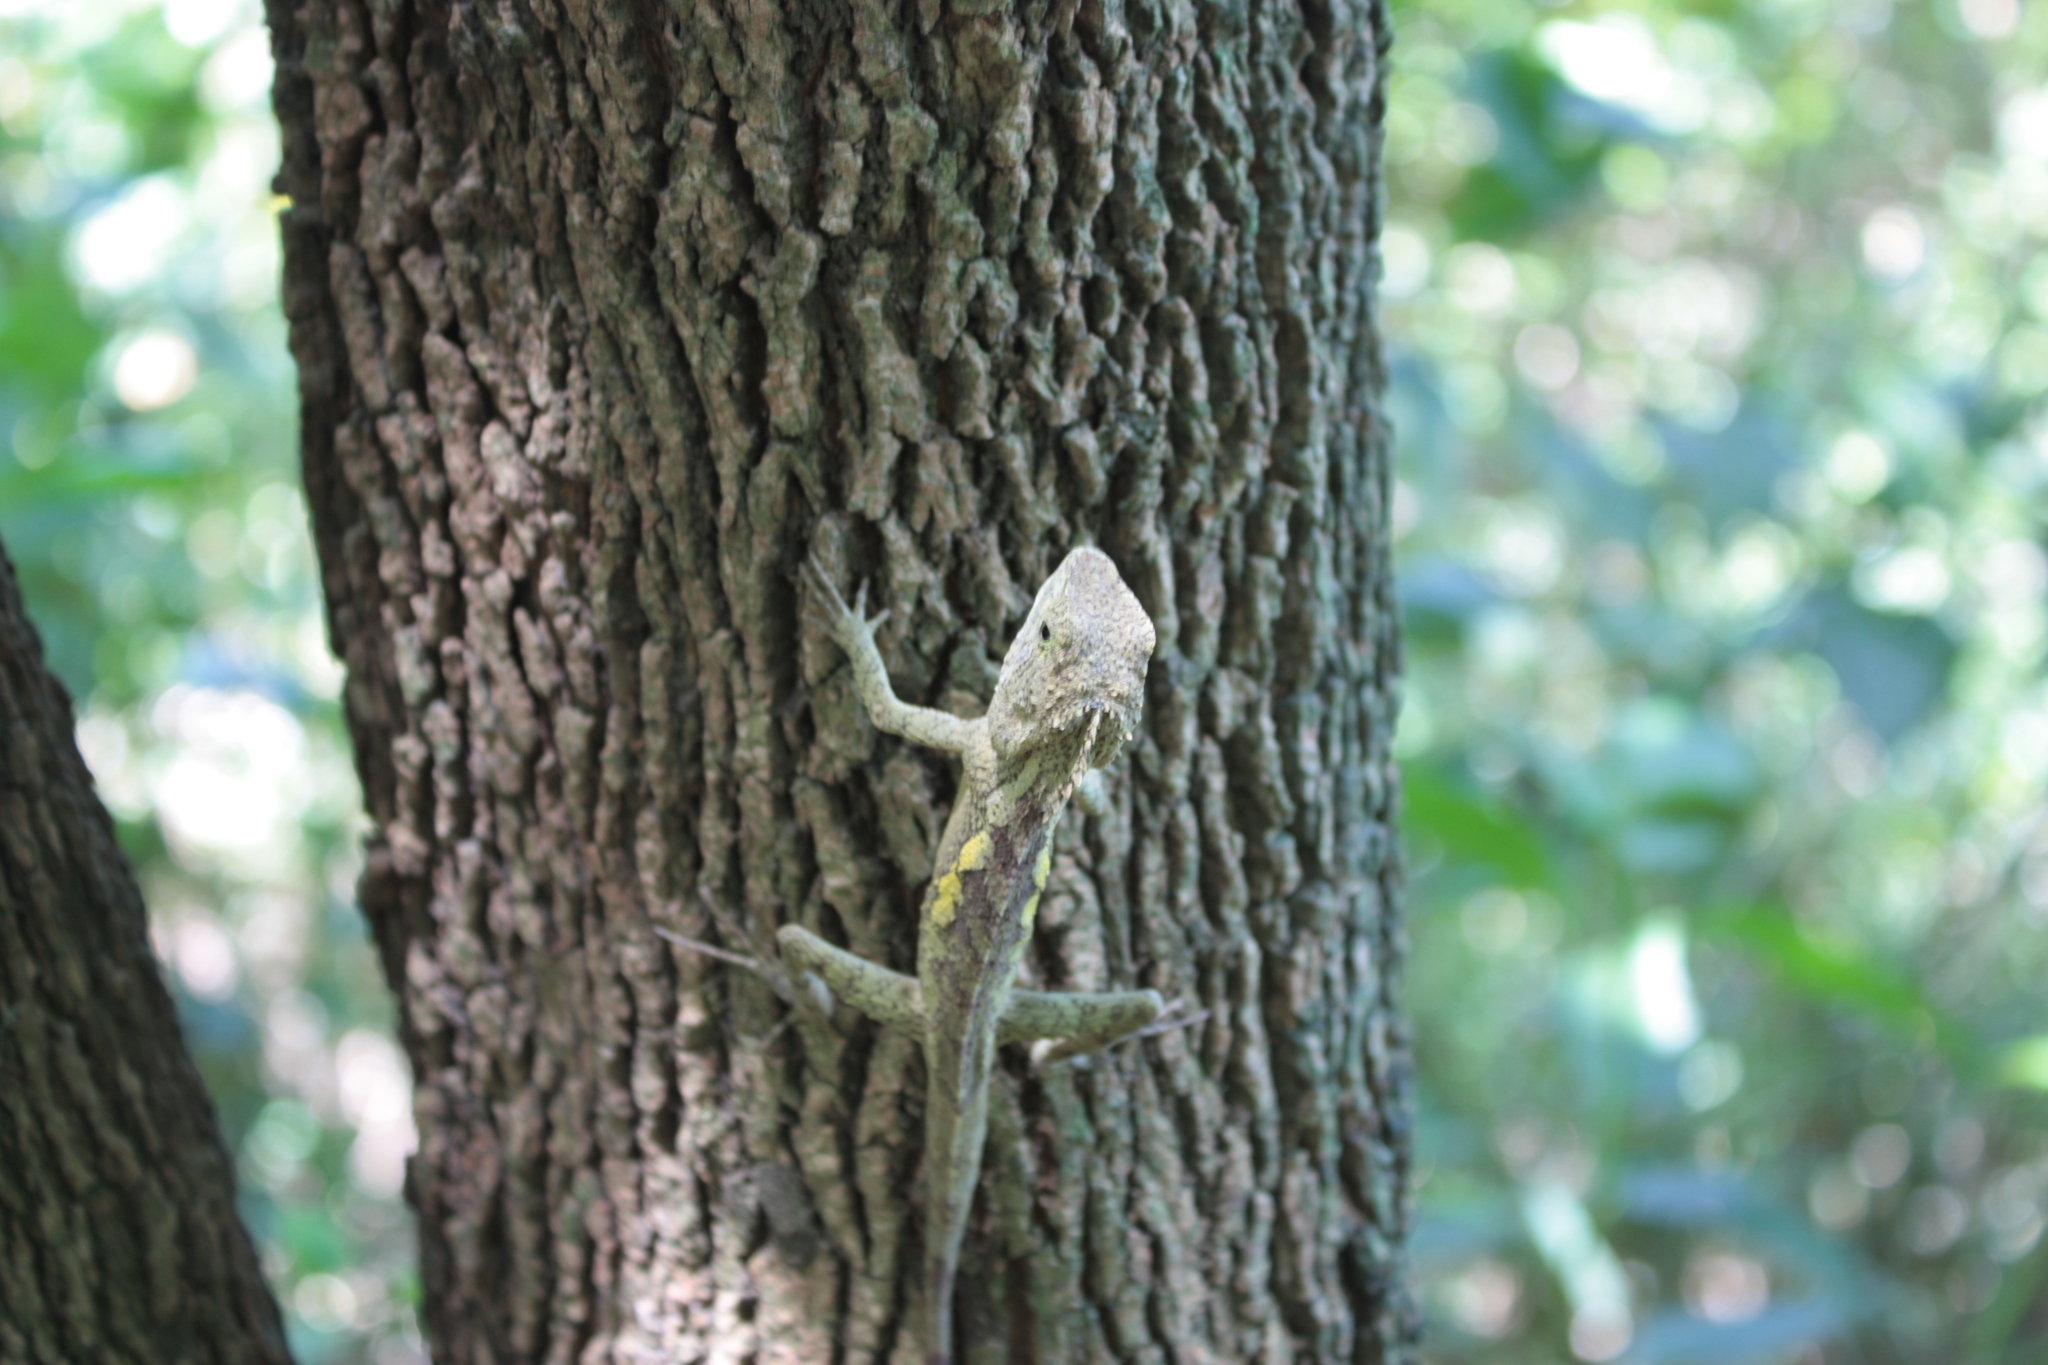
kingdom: Animalia
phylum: Chordata
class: Squamata
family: Agamidae
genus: Diploderma
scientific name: Diploderma swinhonis
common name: Taiwan japalure
